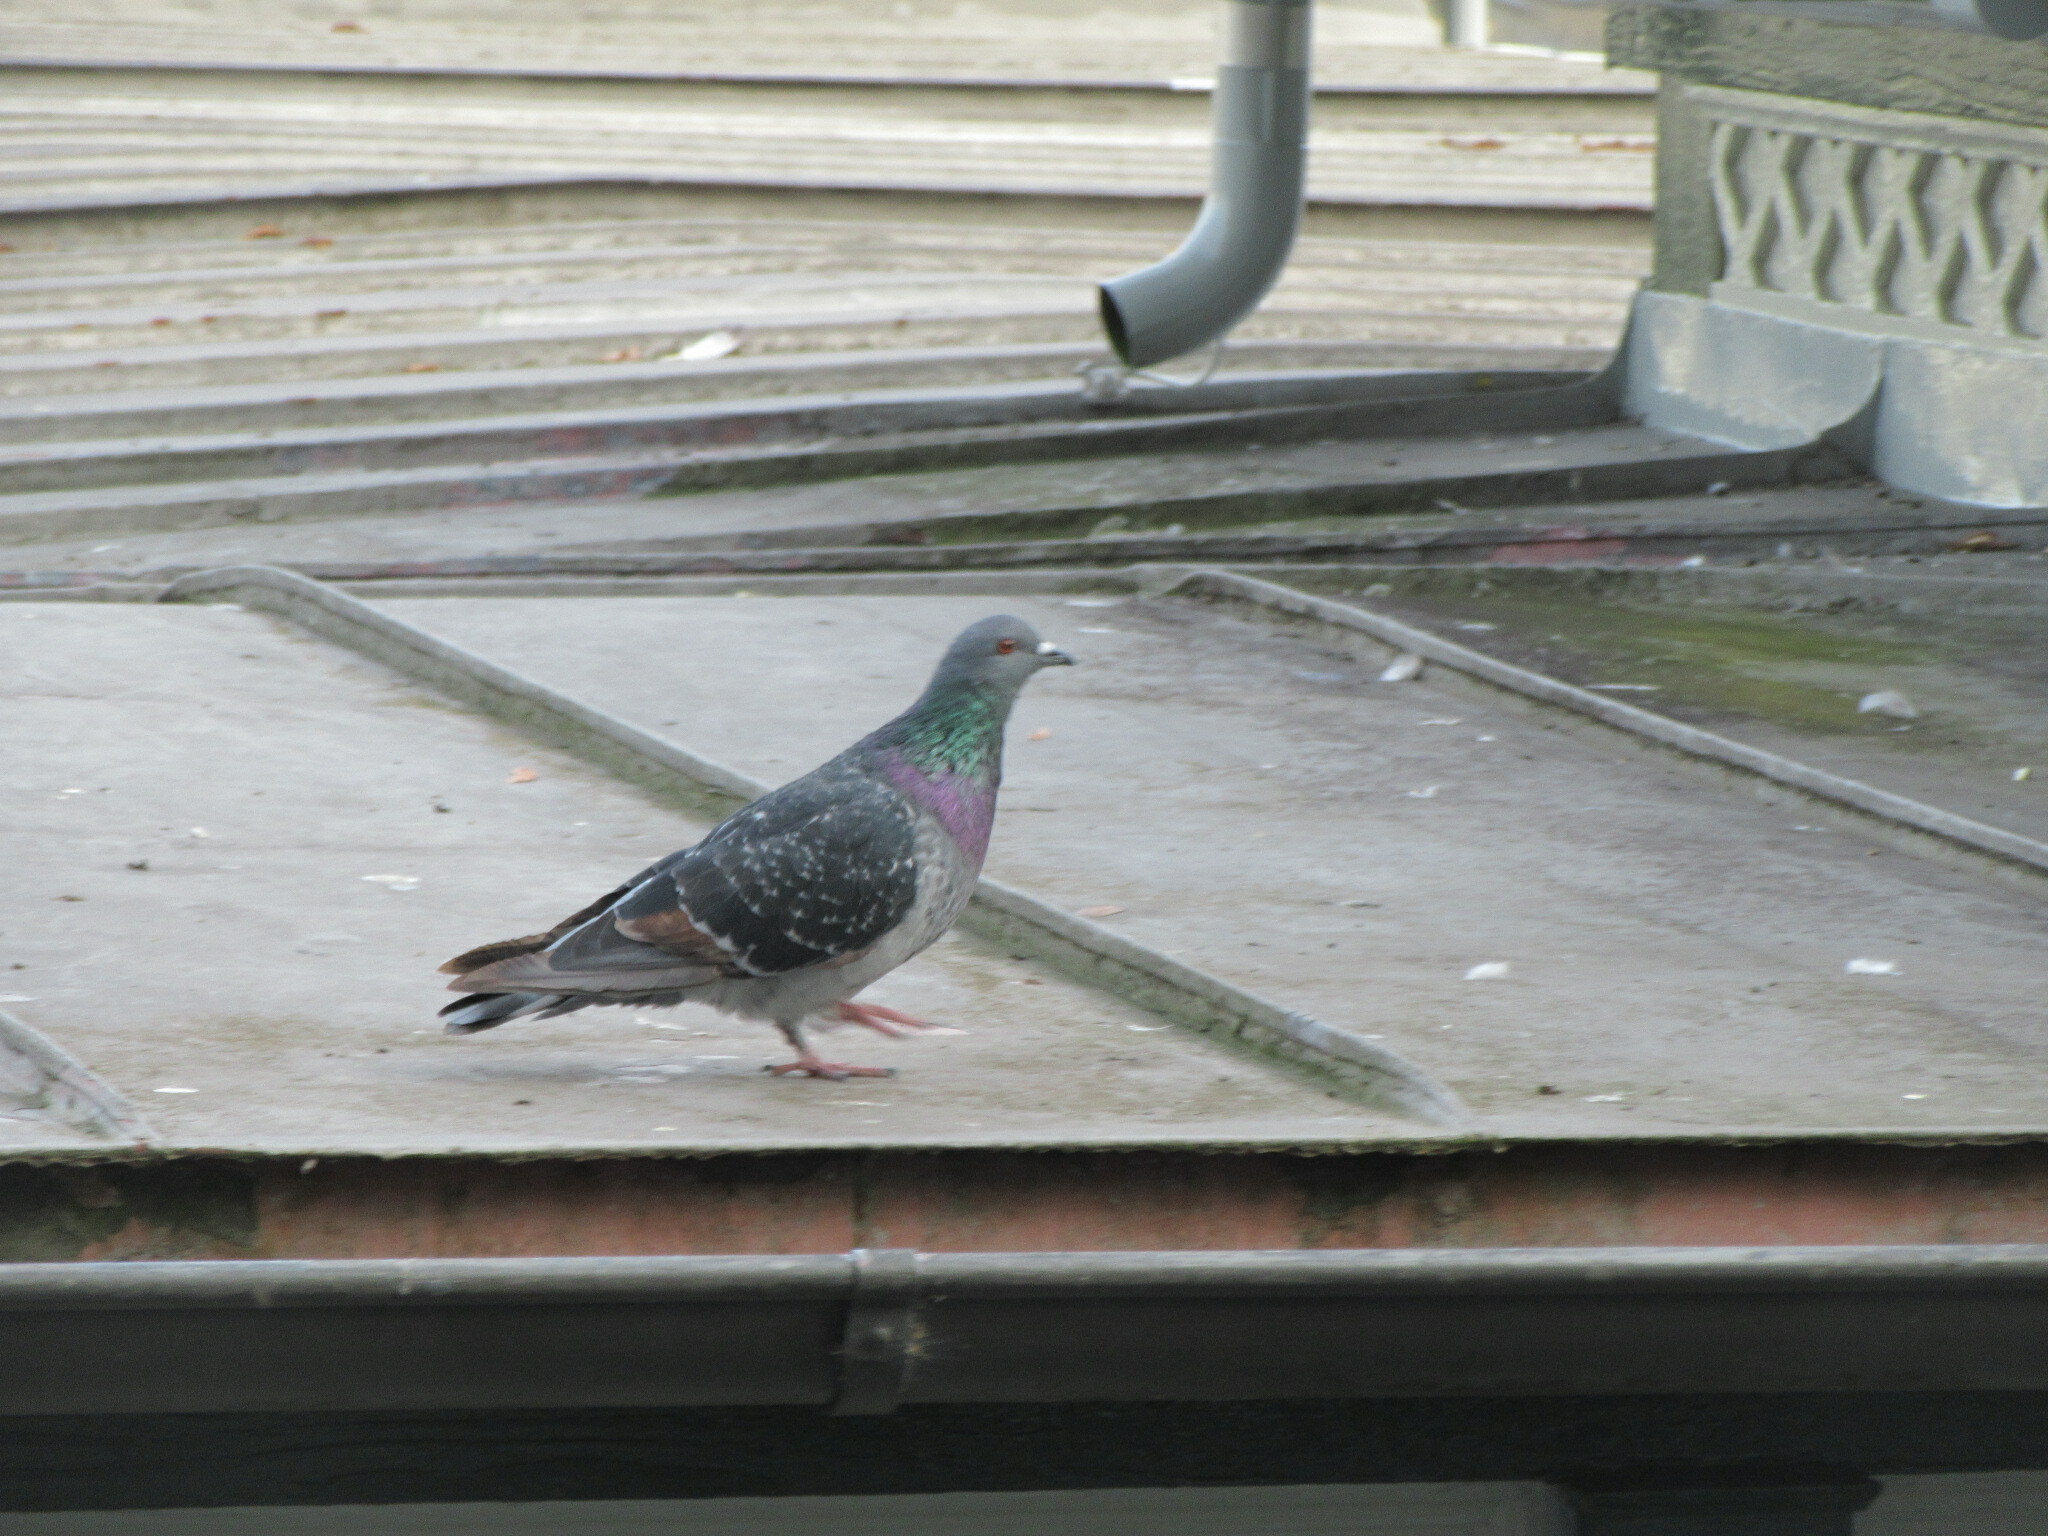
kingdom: Animalia
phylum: Chordata
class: Aves
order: Columbiformes
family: Columbidae
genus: Columba
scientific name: Columba livia
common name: Rock pigeon
